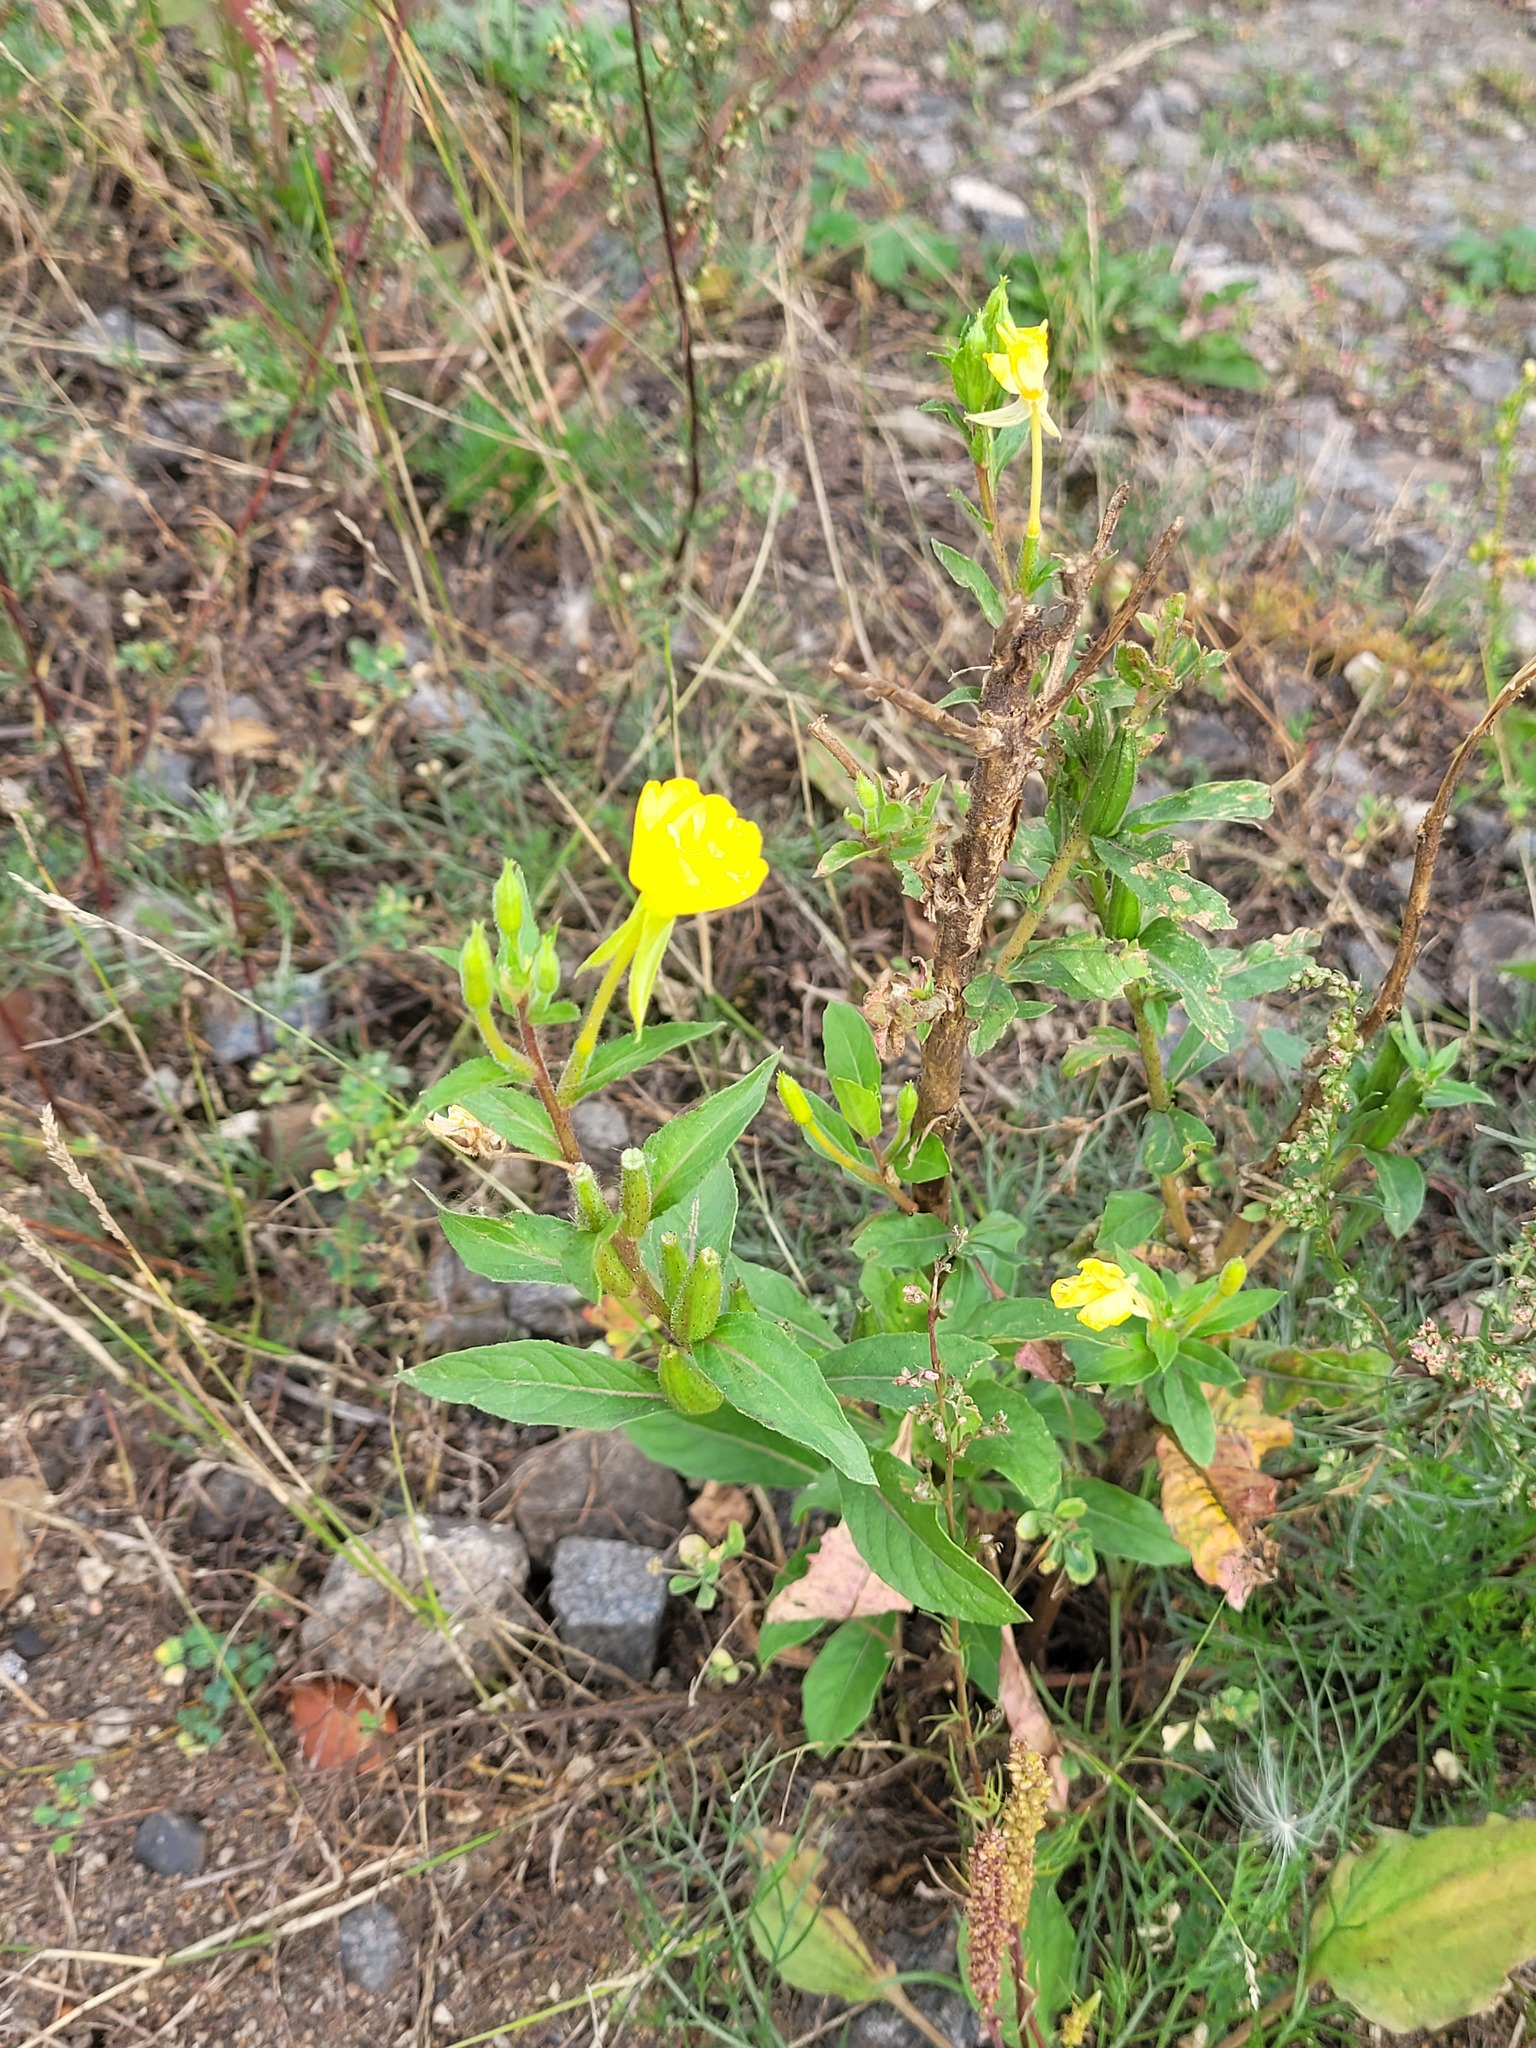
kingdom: Plantae
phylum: Tracheophyta
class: Magnoliopsida
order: Myrtales
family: Onagraceae
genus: Oenothera
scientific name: Oenothera rubricaulis
